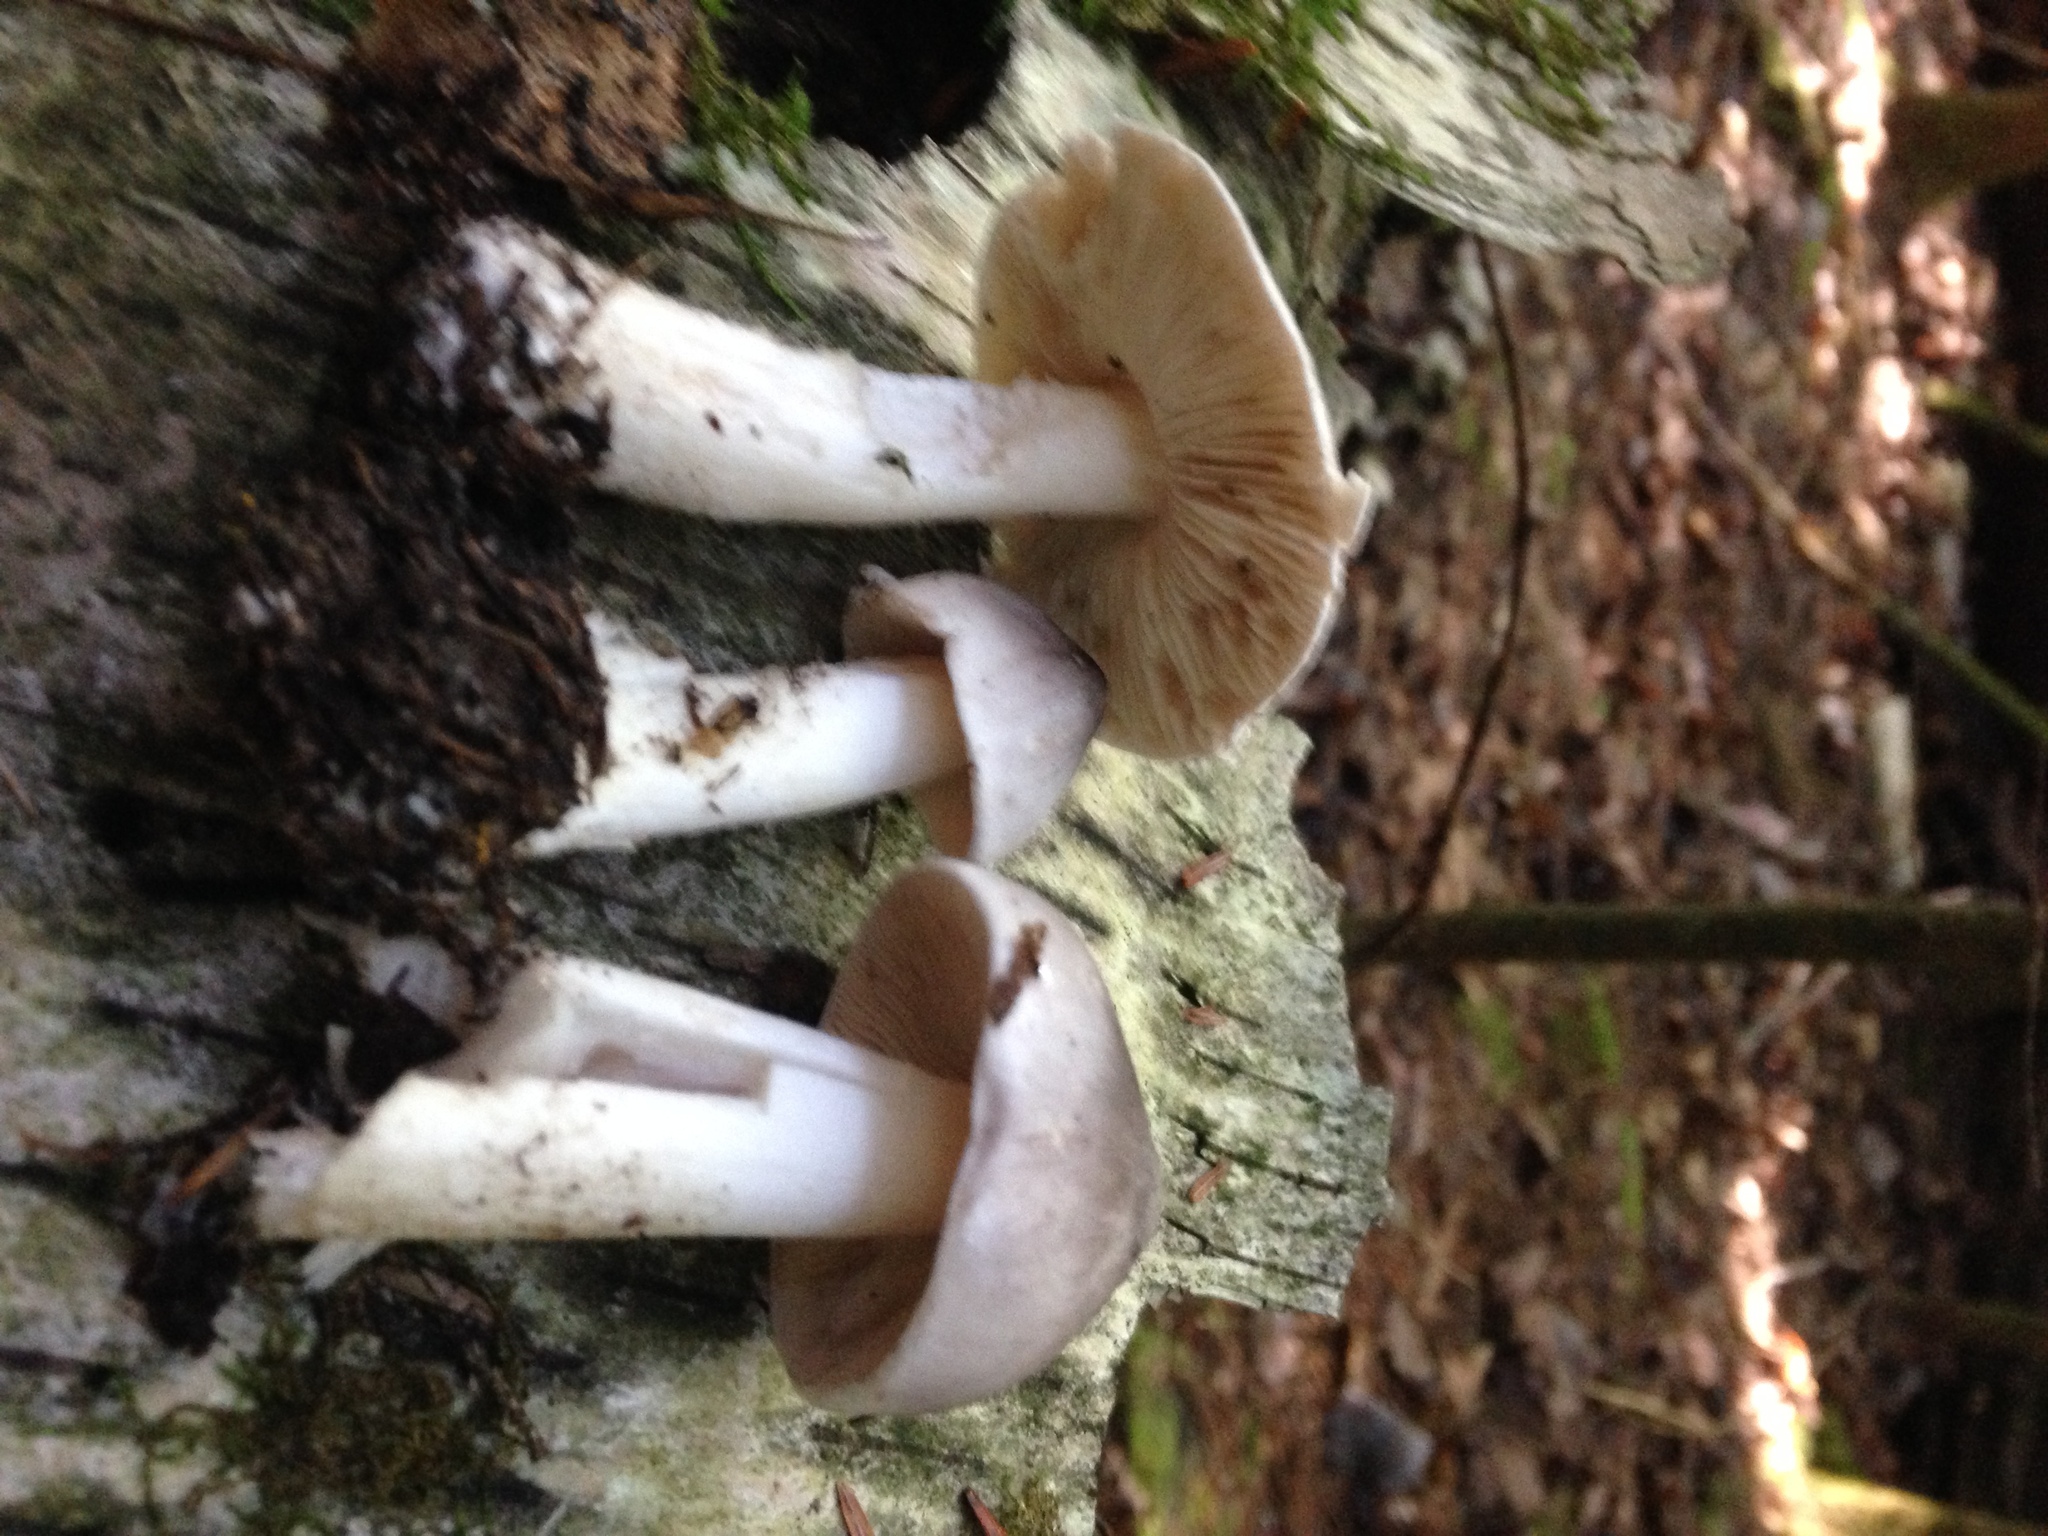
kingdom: Fungi
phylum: Basidiomycota
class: Agaricomycetes
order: Agaricales
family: Tricholomataceae
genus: Tricholoma
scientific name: Tricholoma virgatum
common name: Ashen knight
